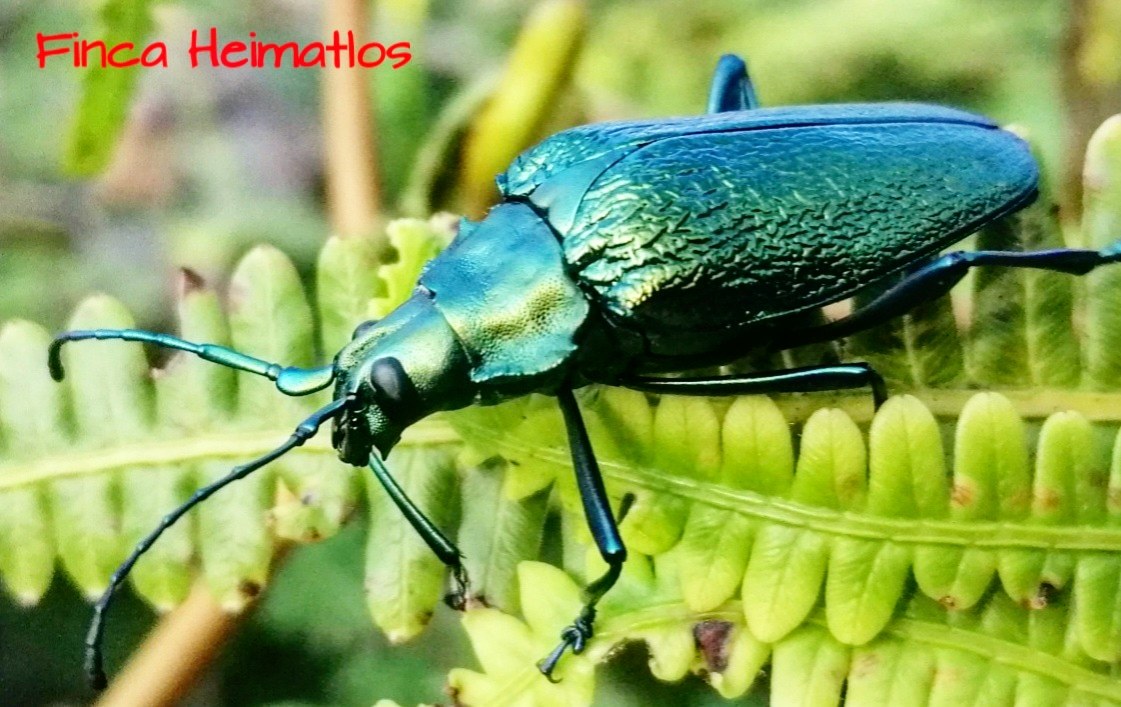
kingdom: Animalia
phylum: Arthropoda
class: Insecta
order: Coleoptera
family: Cerambycidae
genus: Charmallaspis
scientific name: Charmallaspis pulcherrima
